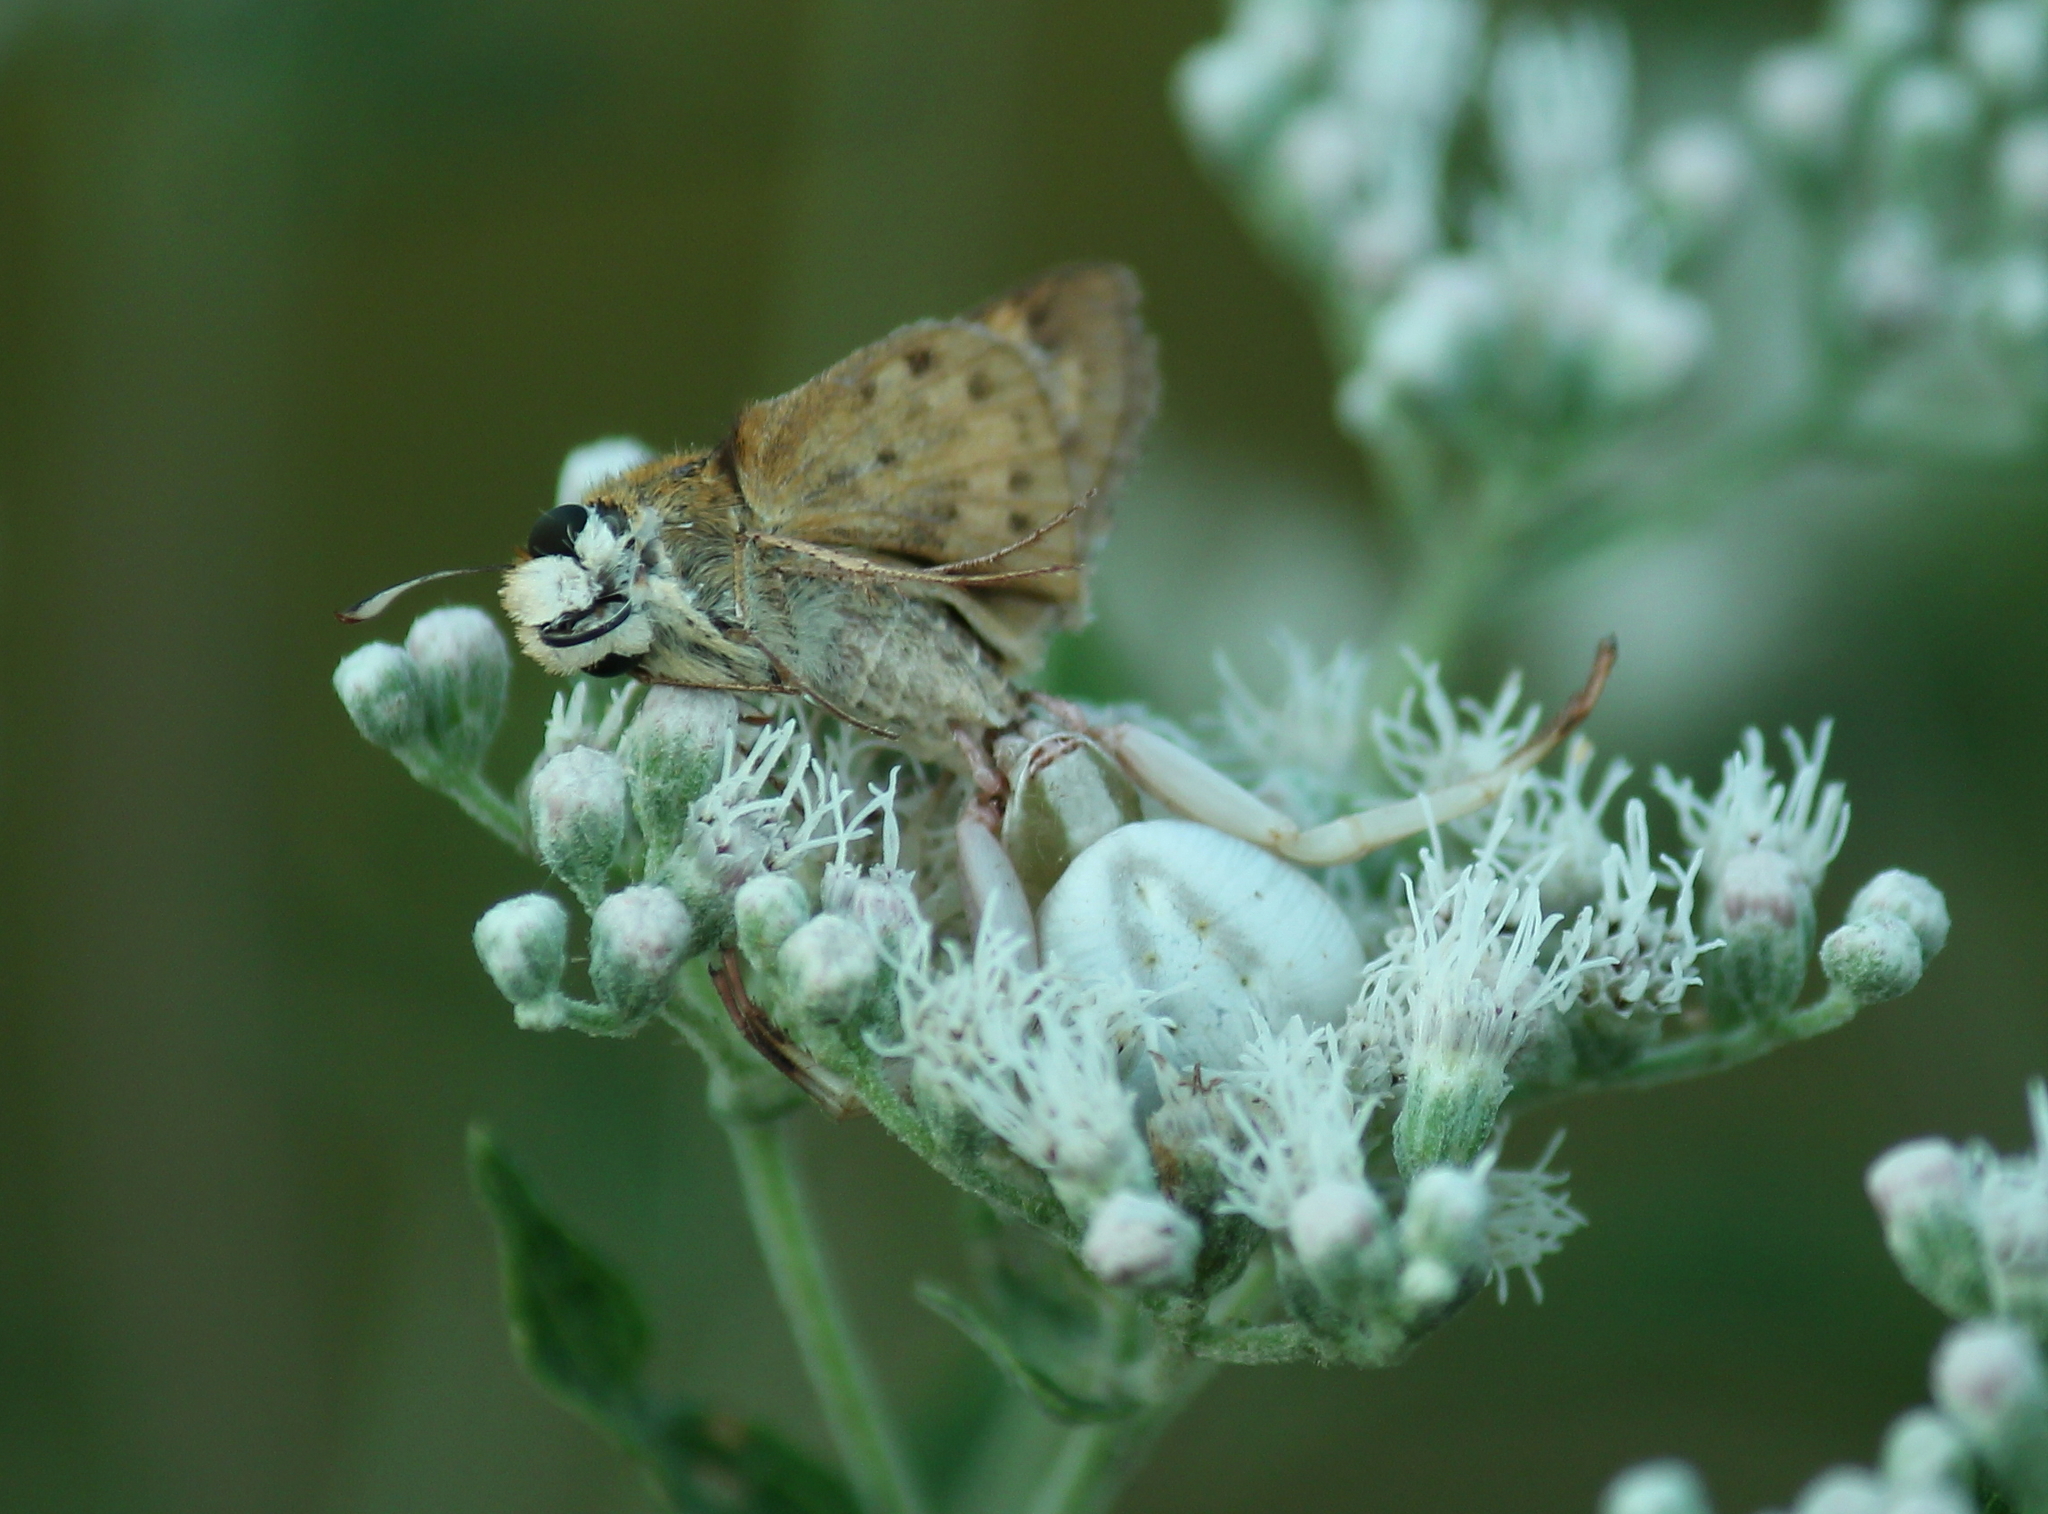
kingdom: Animalia
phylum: Arthropoda
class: Arachnida
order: Araneae
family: Thomisidae
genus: Misumenoides
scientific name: Misumenoides formosipes
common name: White-banded crab spider
